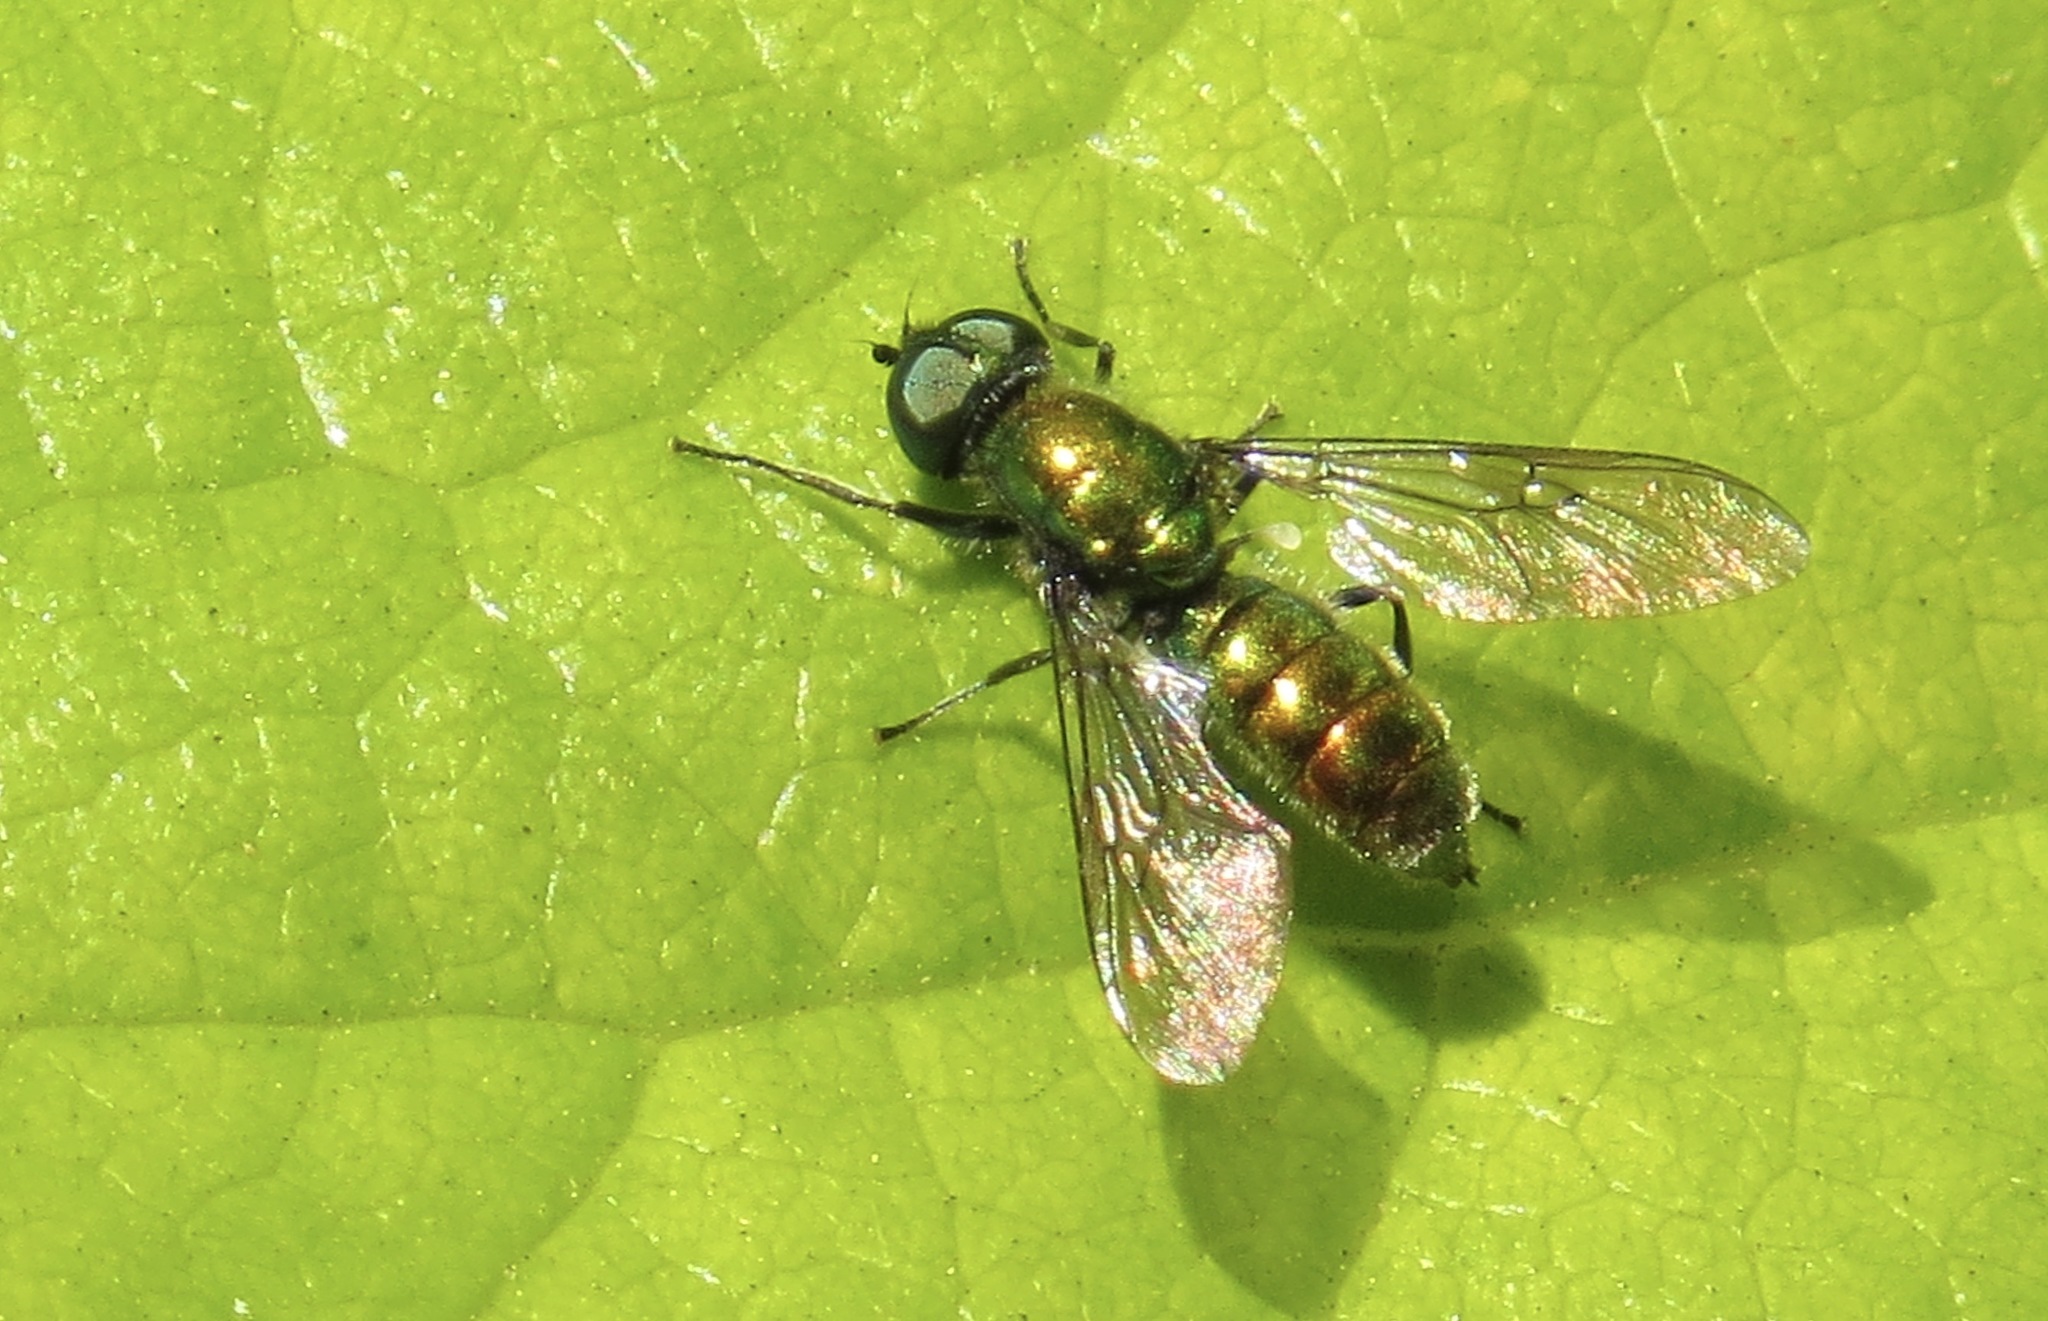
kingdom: Animalia
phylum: Arthropoda
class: Insecta
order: Diptera
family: Stratiomyidae
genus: Sargus
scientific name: Sargus viridis
